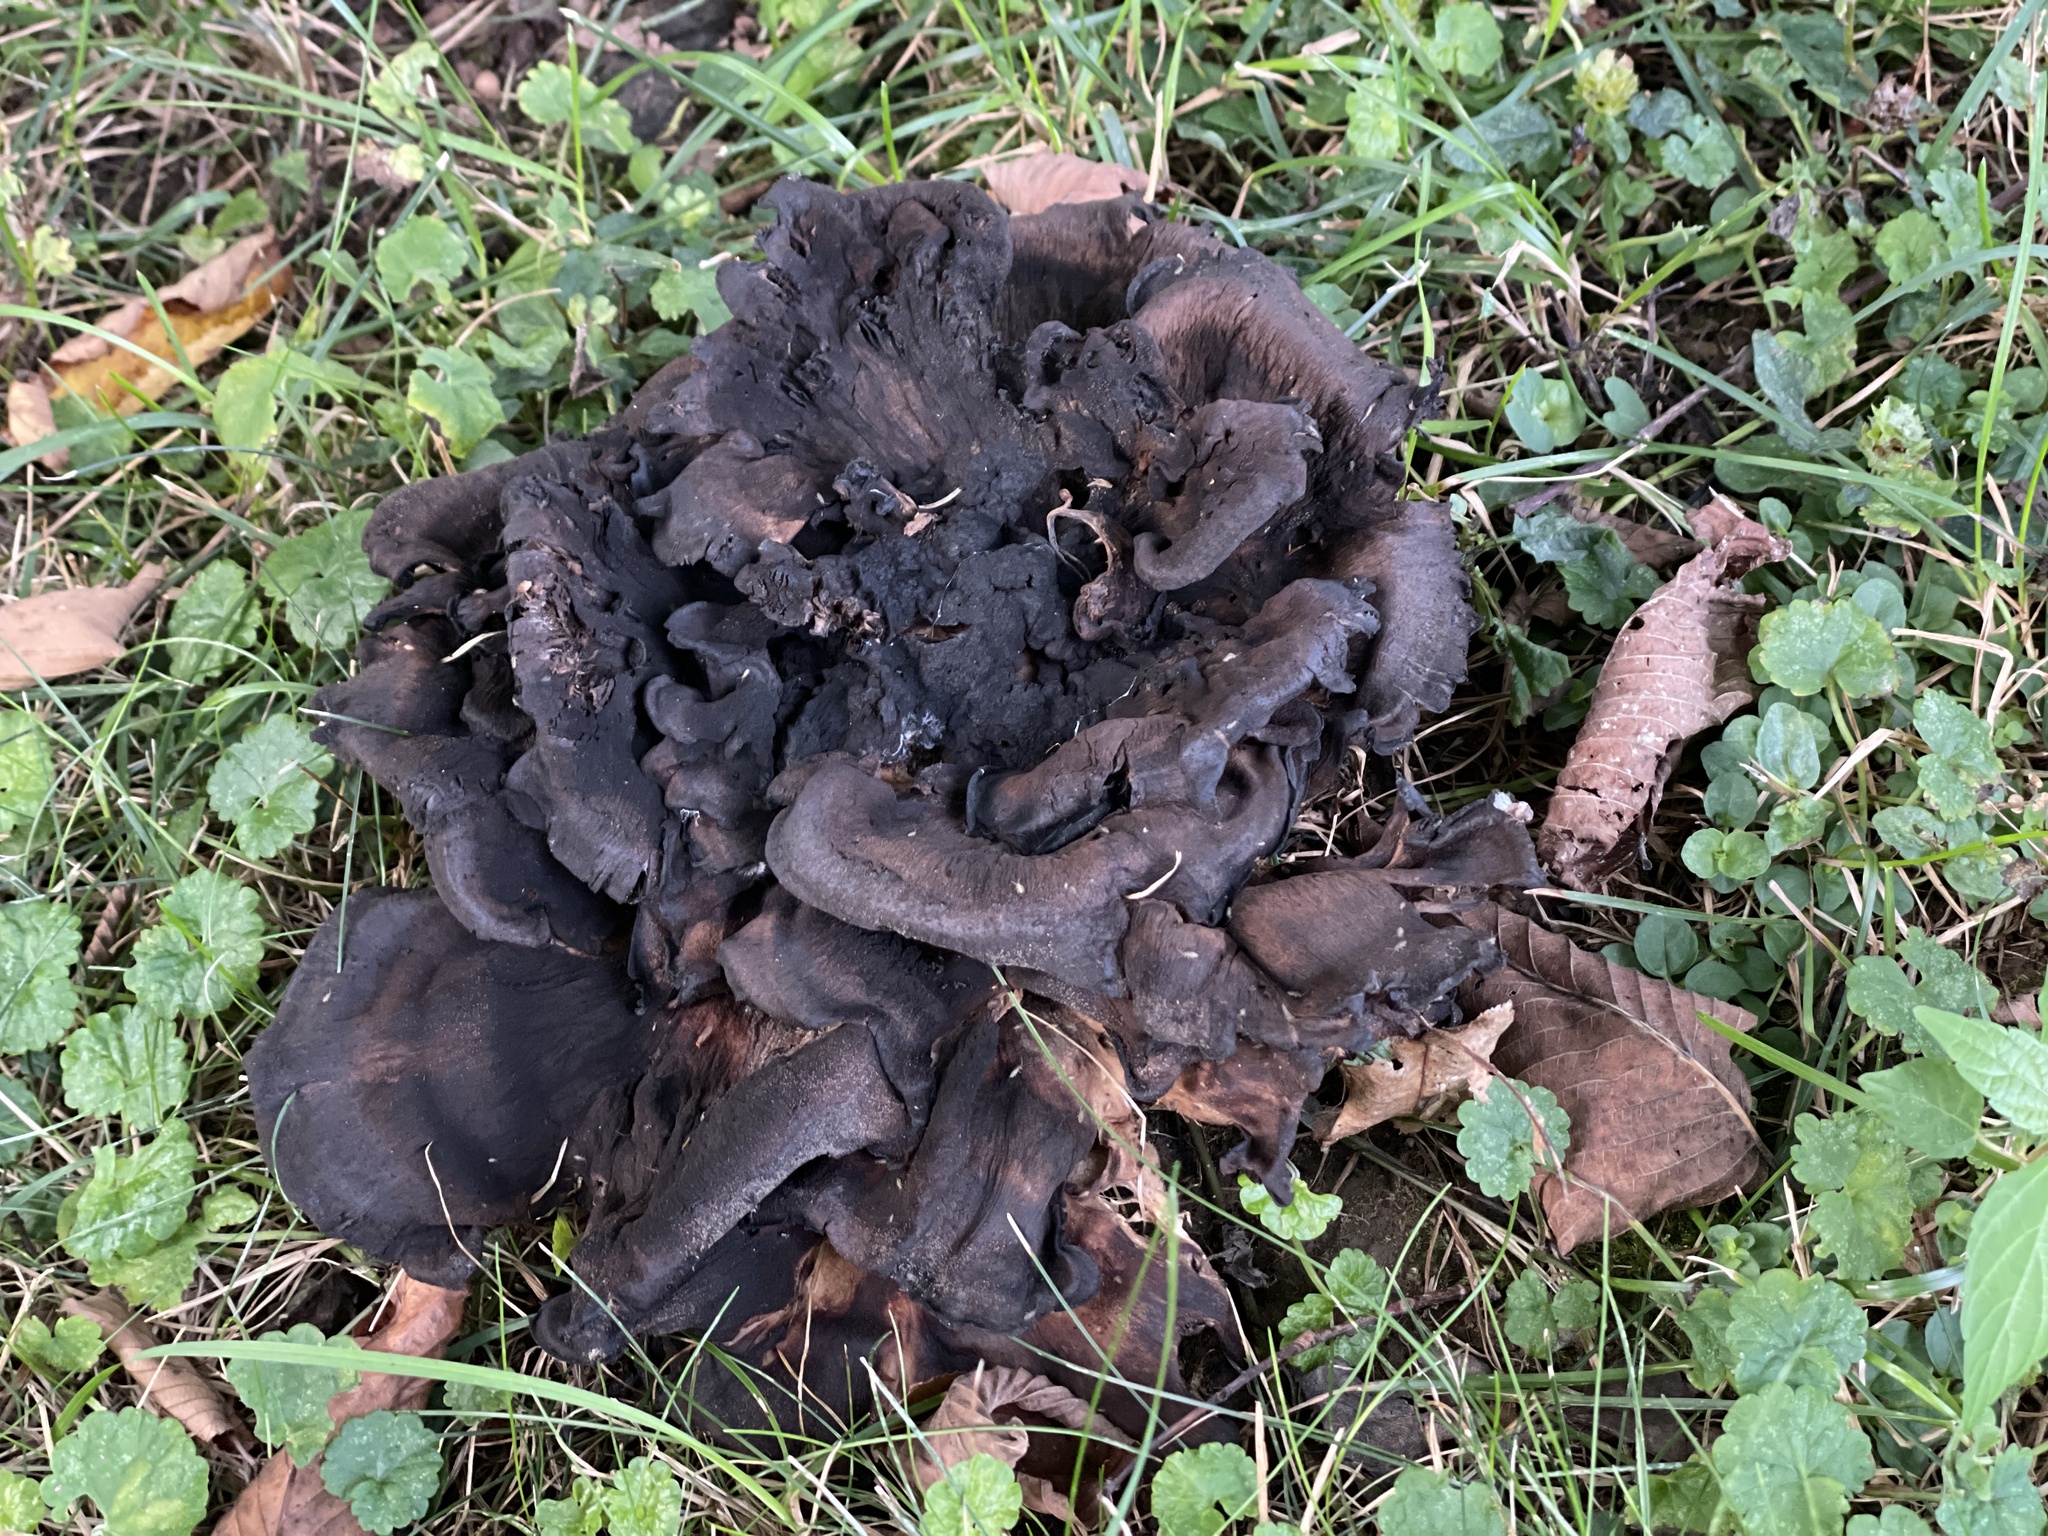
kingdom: Fungi
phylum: Basidiomycota
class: Agaricomycetes
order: Polyporales
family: Meripilaceae
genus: Meripilus
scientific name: Meripilus sumstinei
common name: Black-staining polypore
